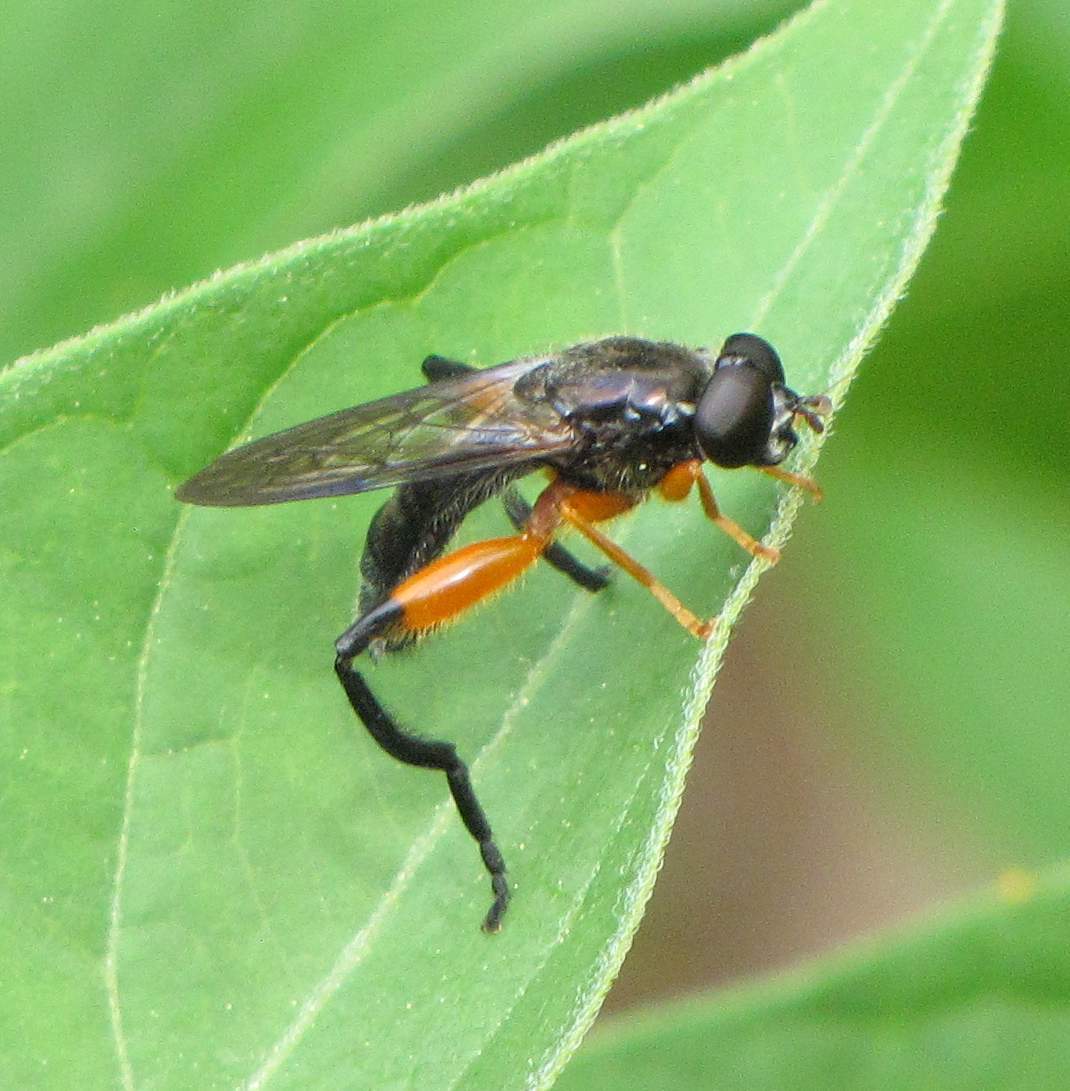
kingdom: Animalia
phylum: Arthropoda
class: Insecta
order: Diptera
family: Syrphidae
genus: Chalcosyrphus
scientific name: Chalcosyrphus vecors
